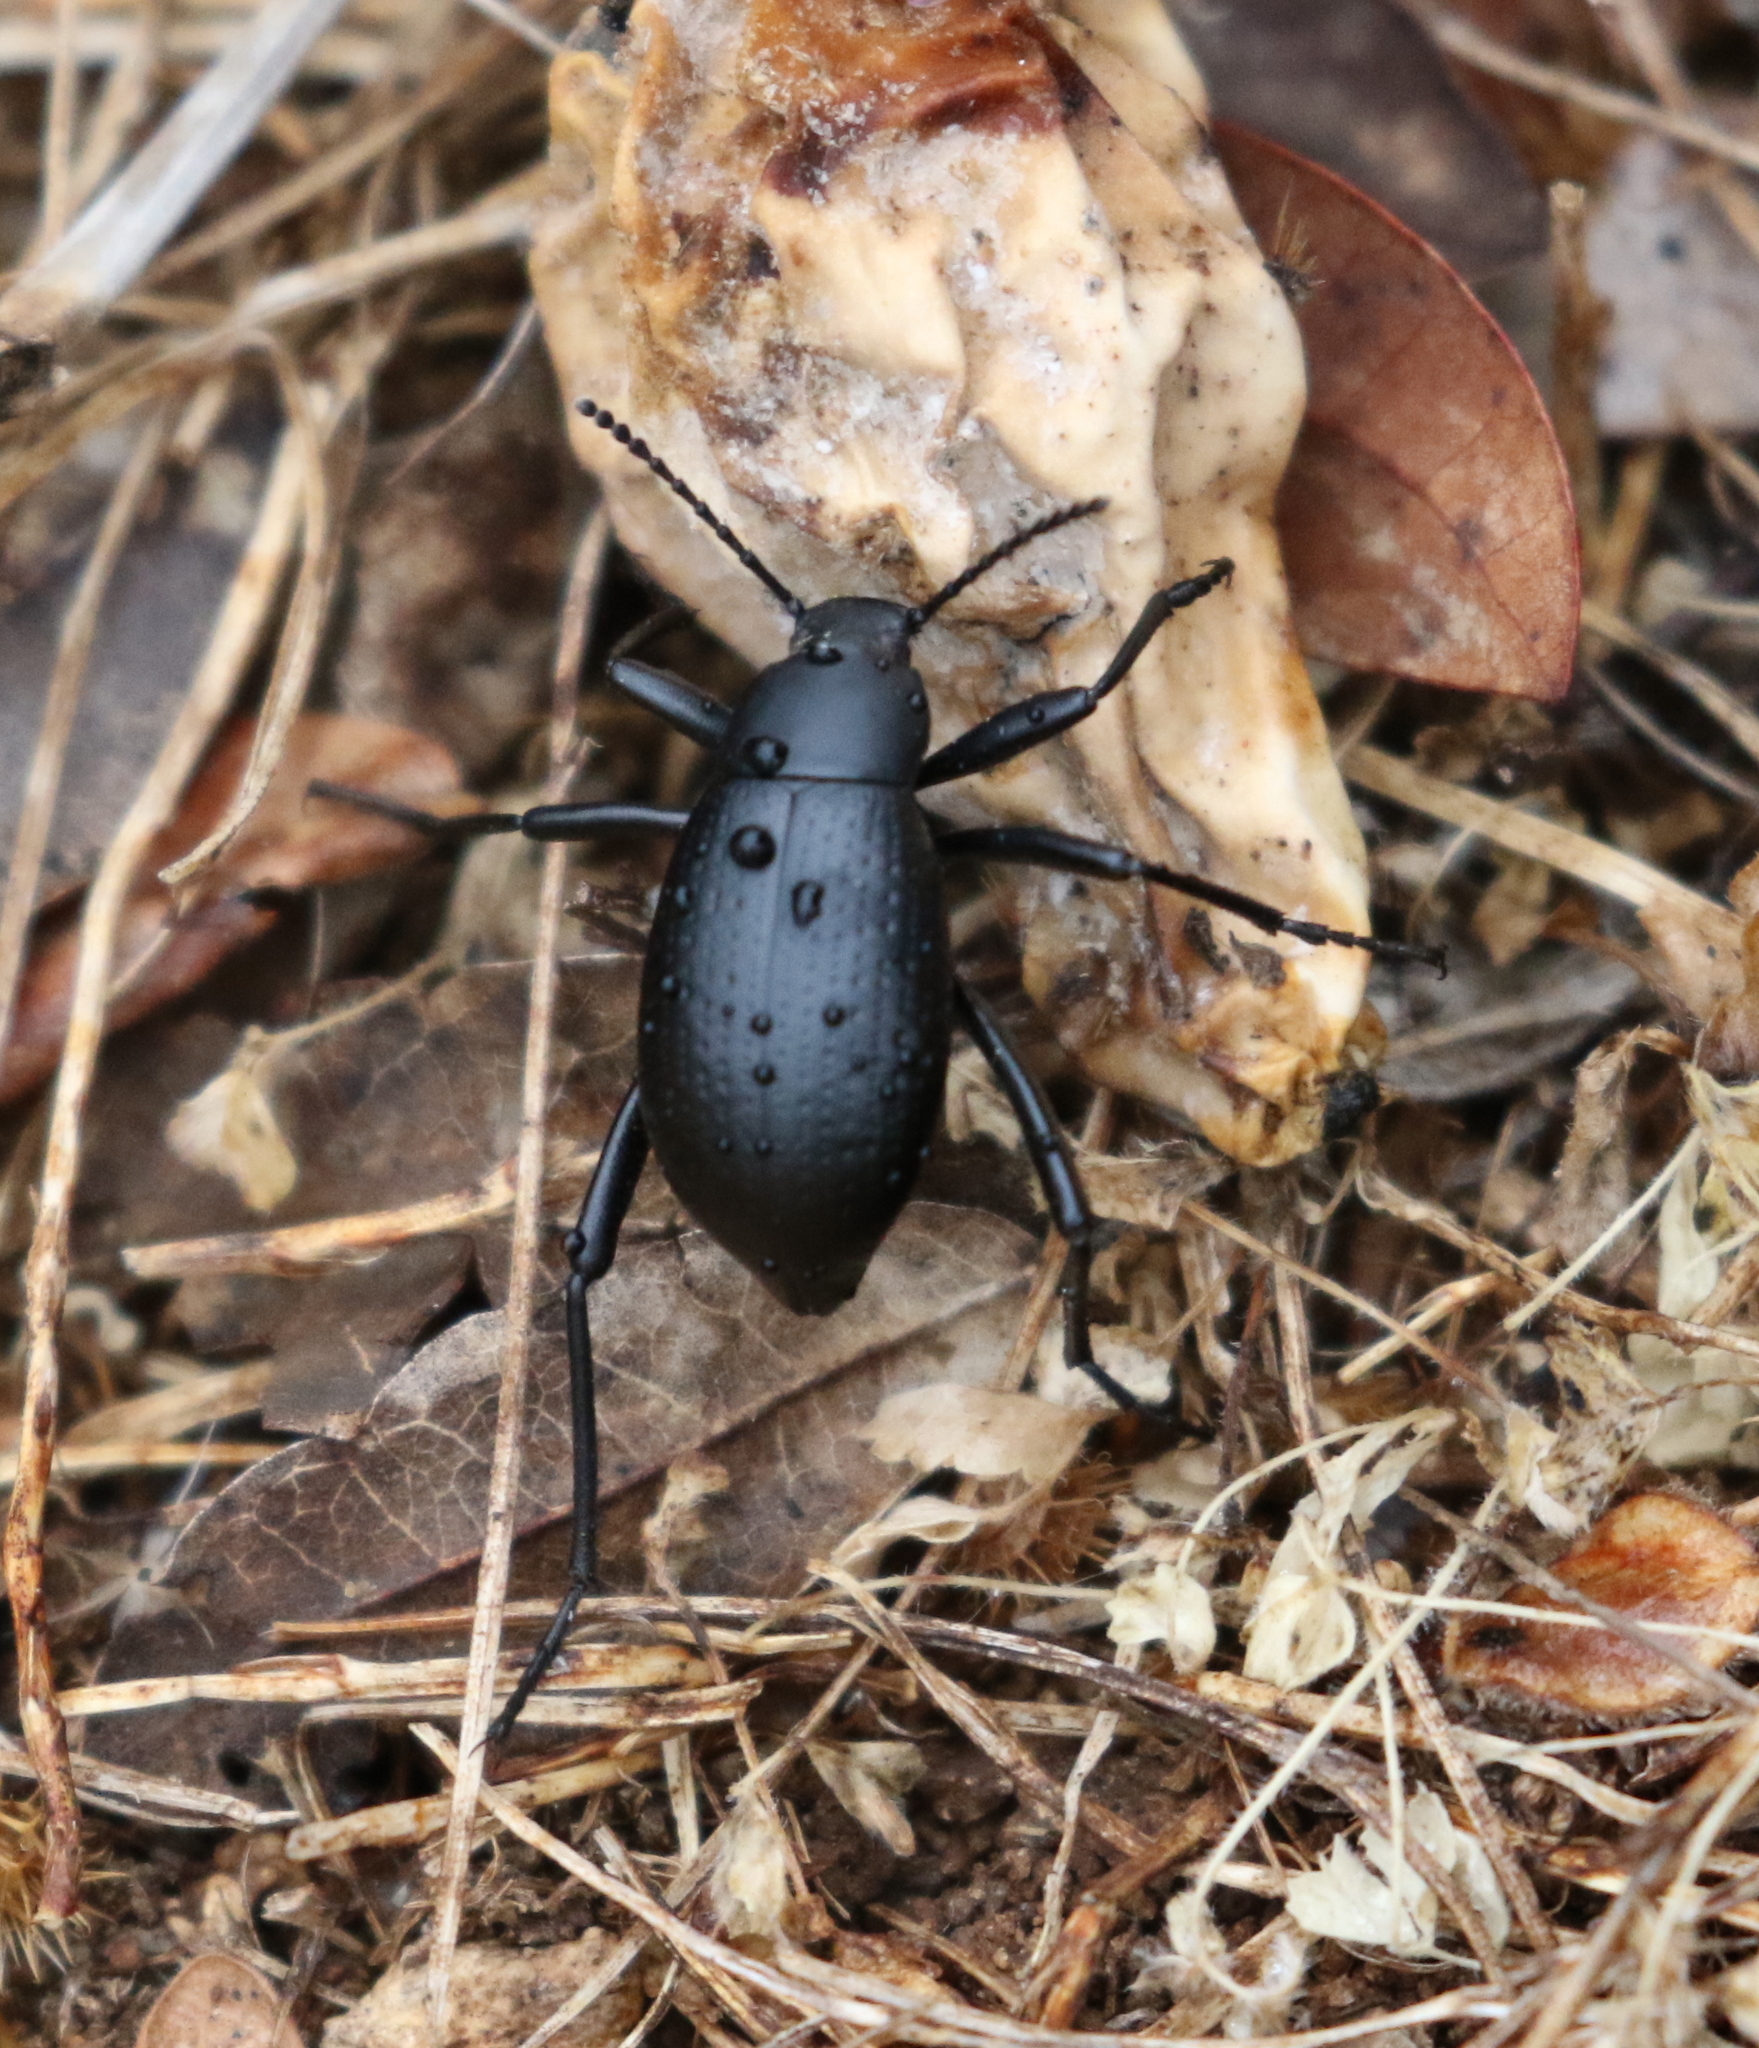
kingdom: Animalia
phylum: Arthropoda
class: Insecta
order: Coleoptera
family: Tenebrionidae
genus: Eleodes
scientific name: Eleodes goryi
